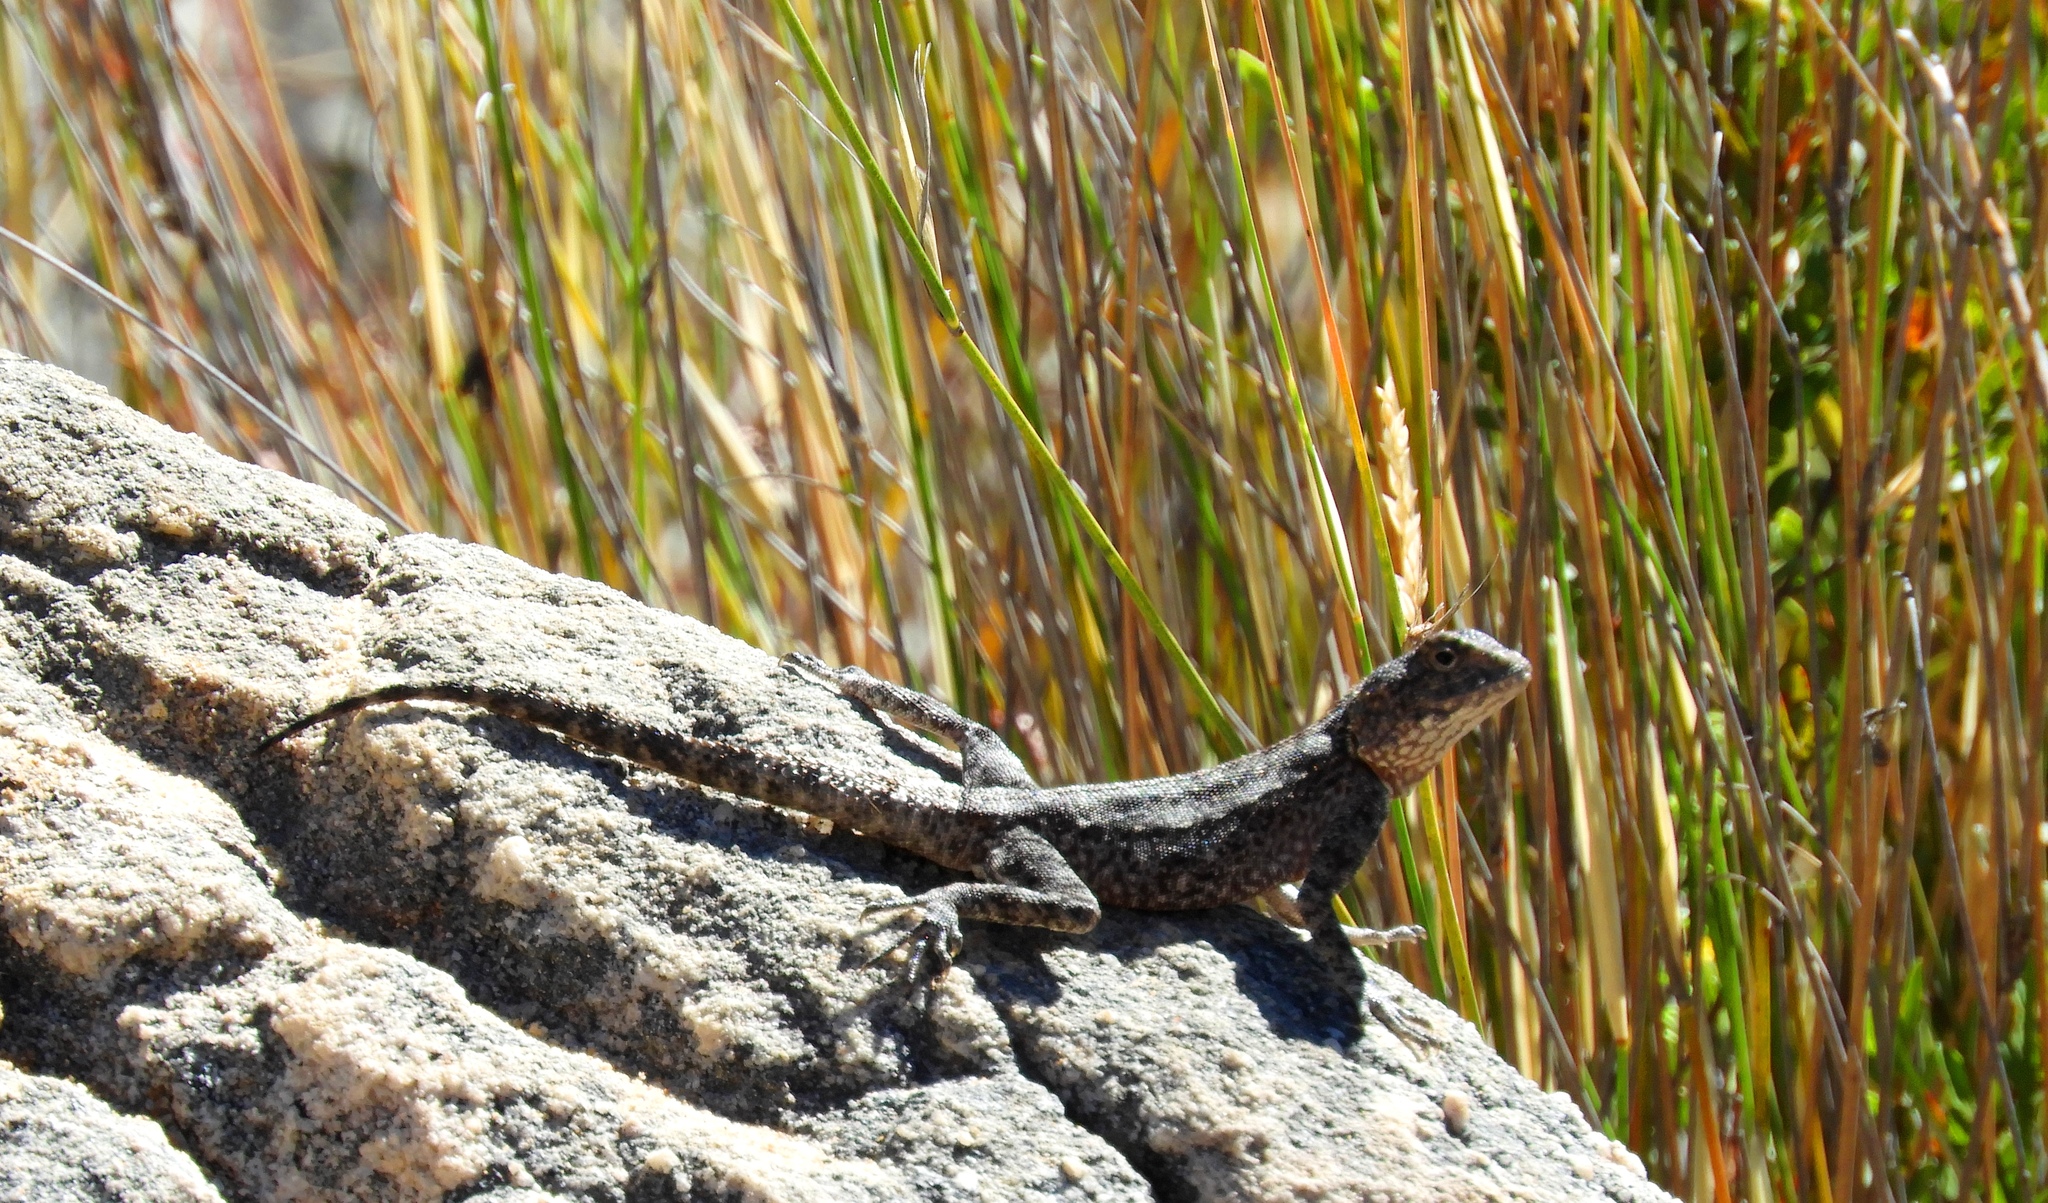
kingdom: Animalia
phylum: Chordata
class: Squamata
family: Agamidae
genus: Agama
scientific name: Agama atra
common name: Southern african rock agama
